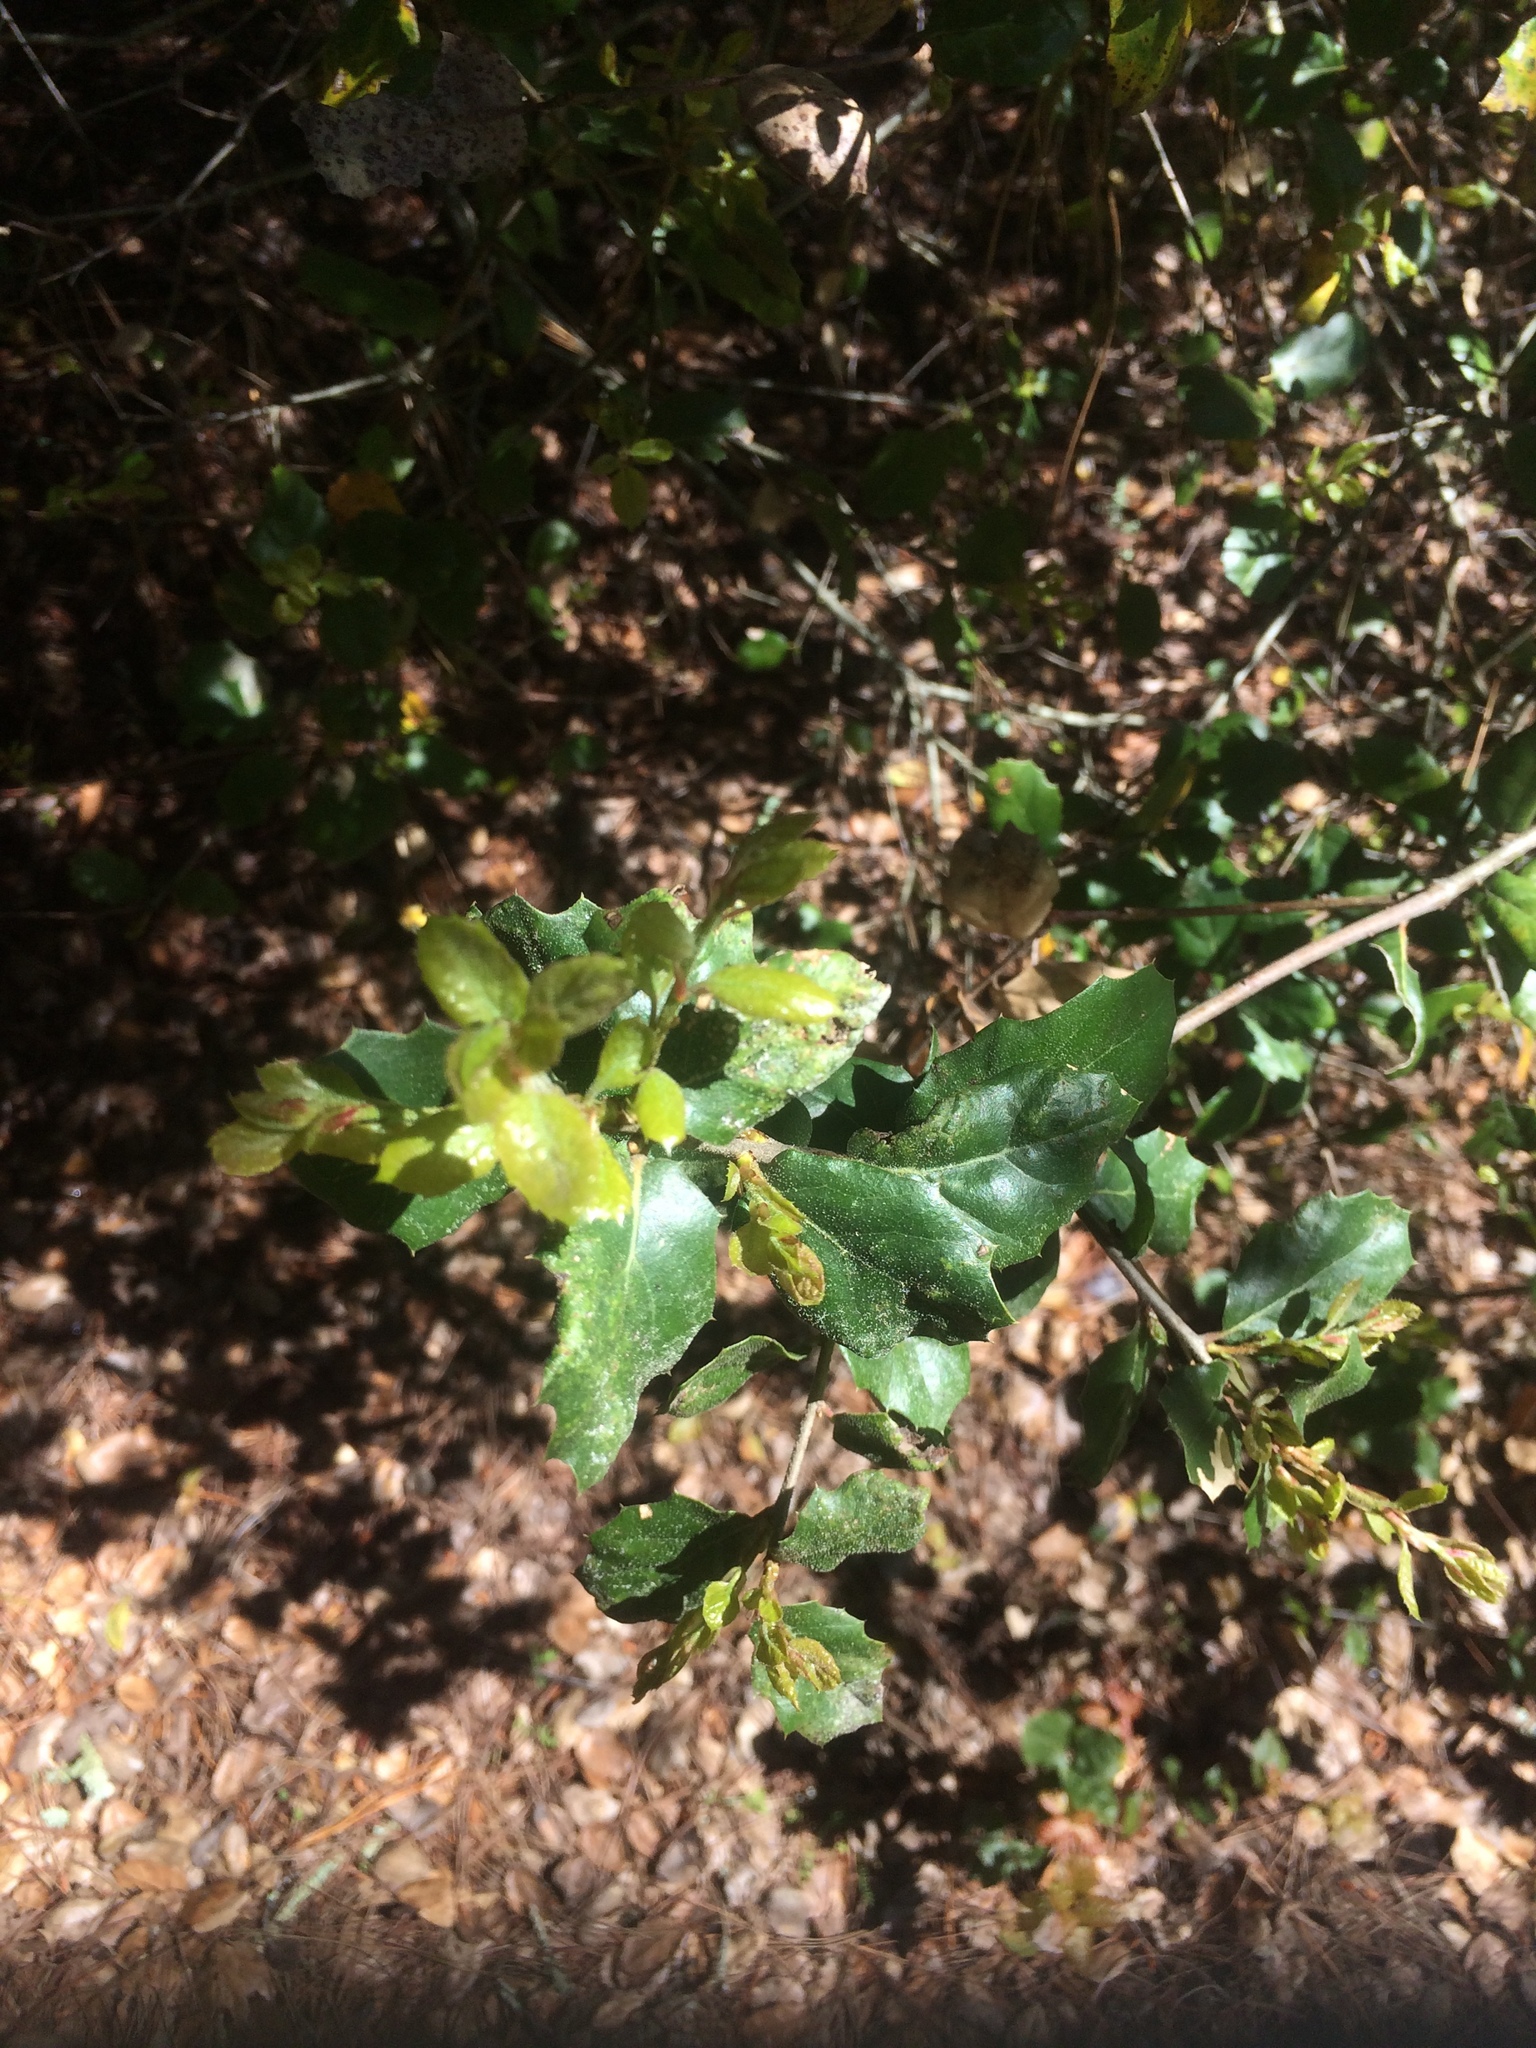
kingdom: Plantae
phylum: Tracheophyta
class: Magnoliopsida
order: Fagales
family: Fagaceae
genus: Quercus
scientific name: Quercus agrifolia
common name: California live oak
